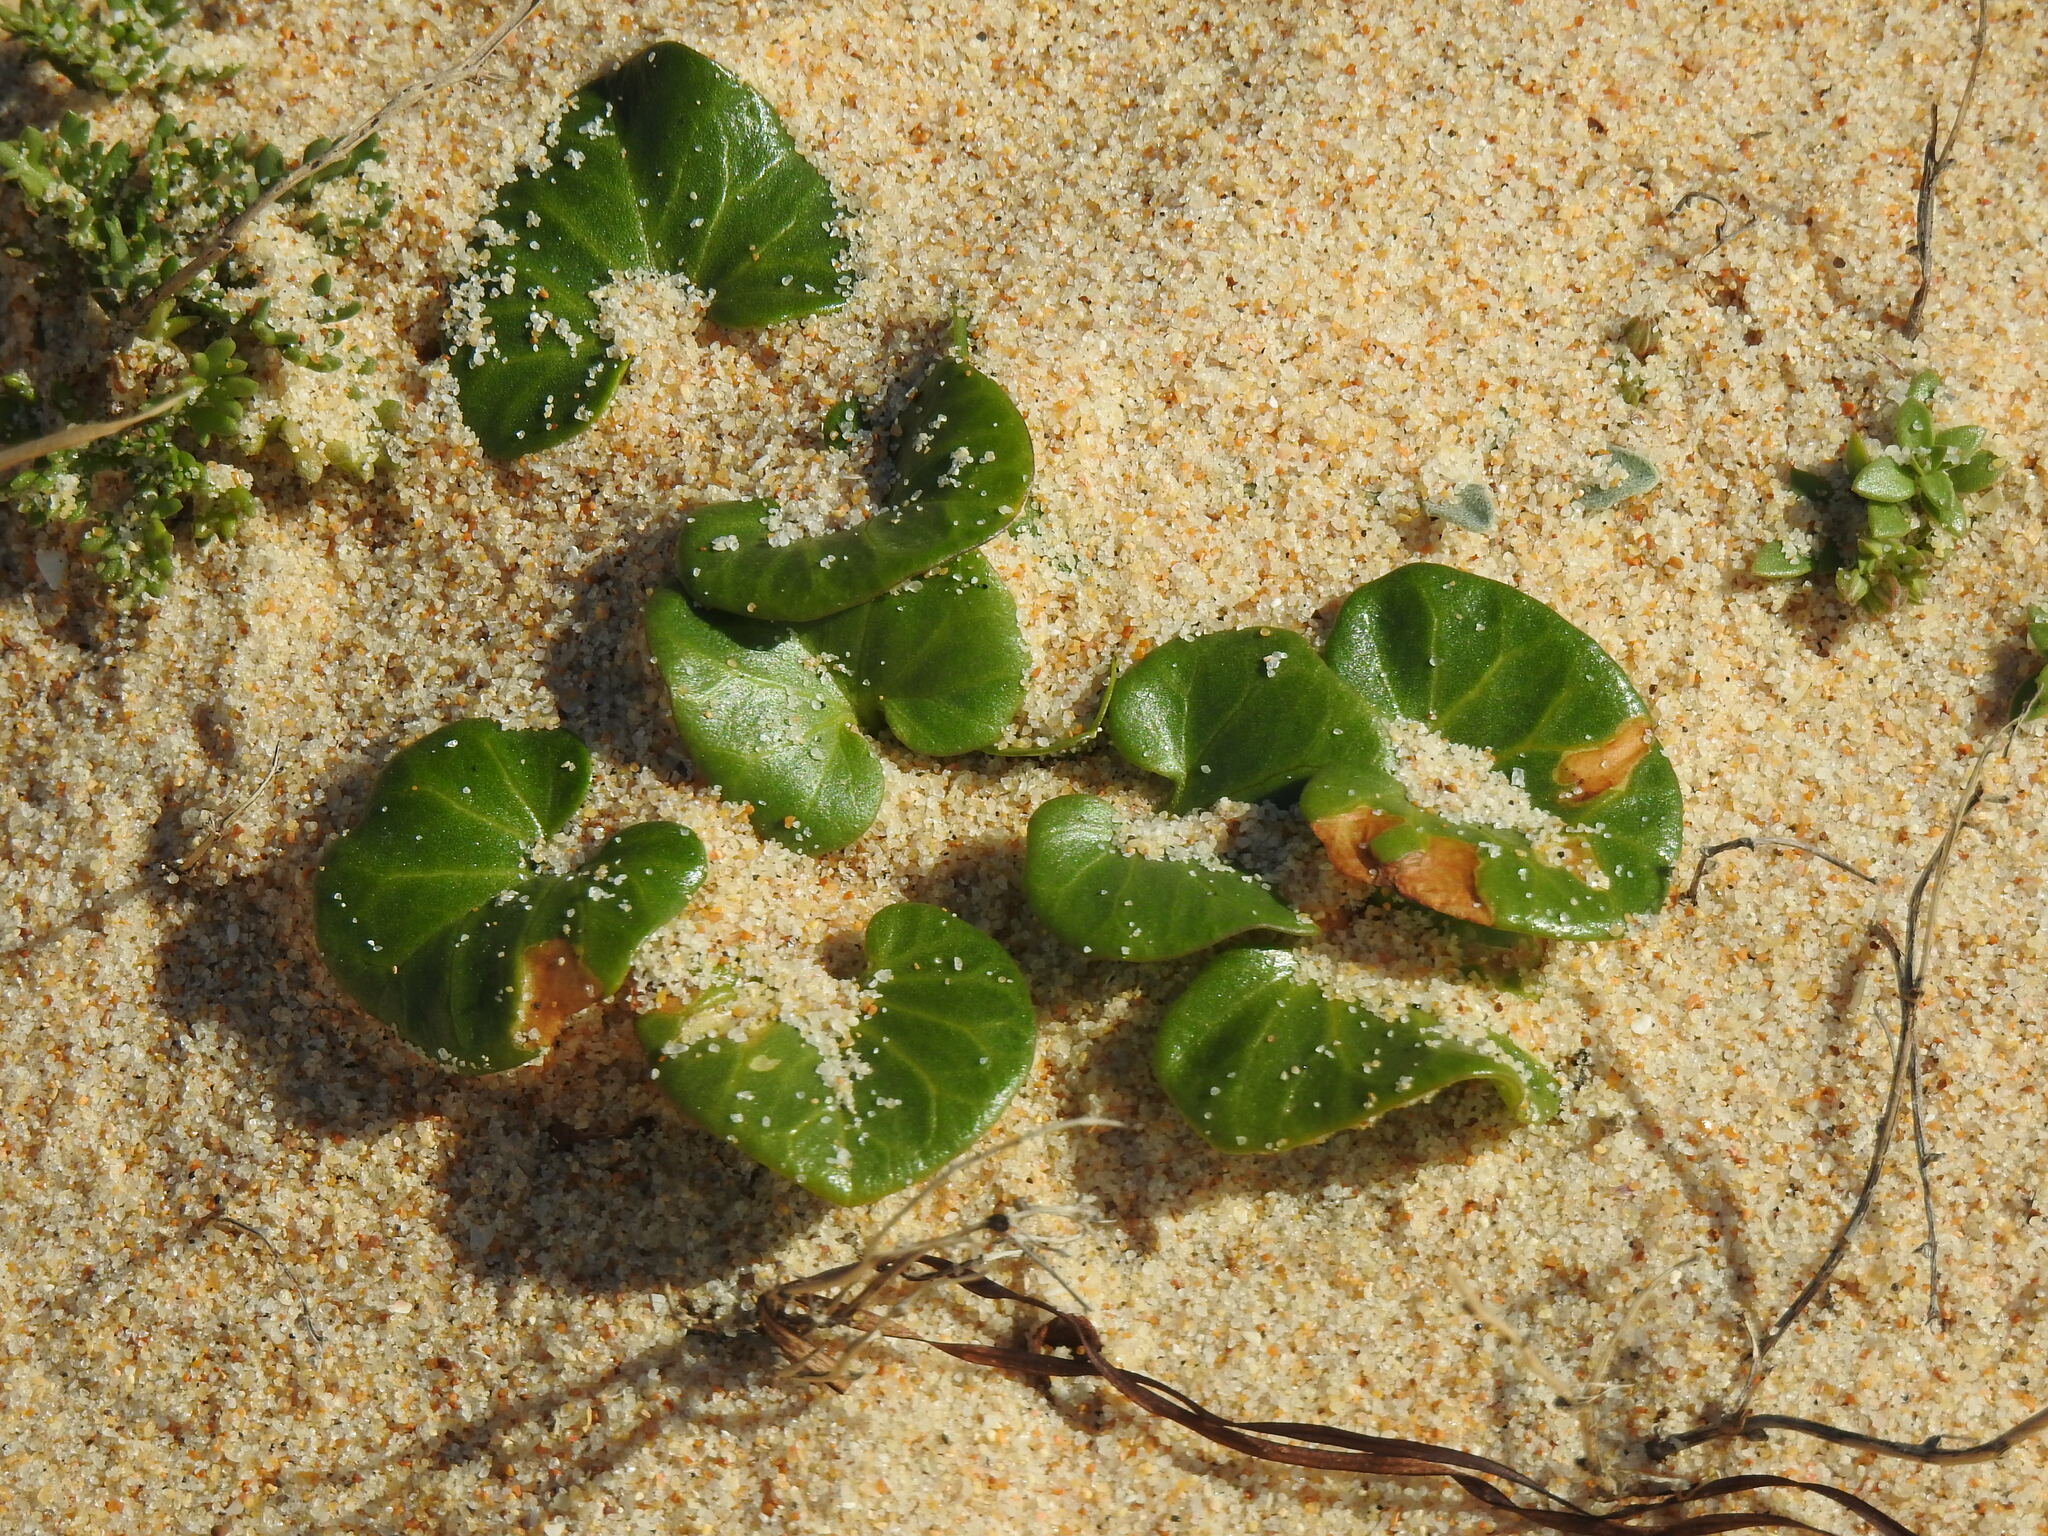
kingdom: Plantae
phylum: Tracheophyta
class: Magnoliopsida
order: Solanales
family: Convolvulaceae
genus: Calystegia
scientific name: Calystegia soldanella
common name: Sea bindweed
